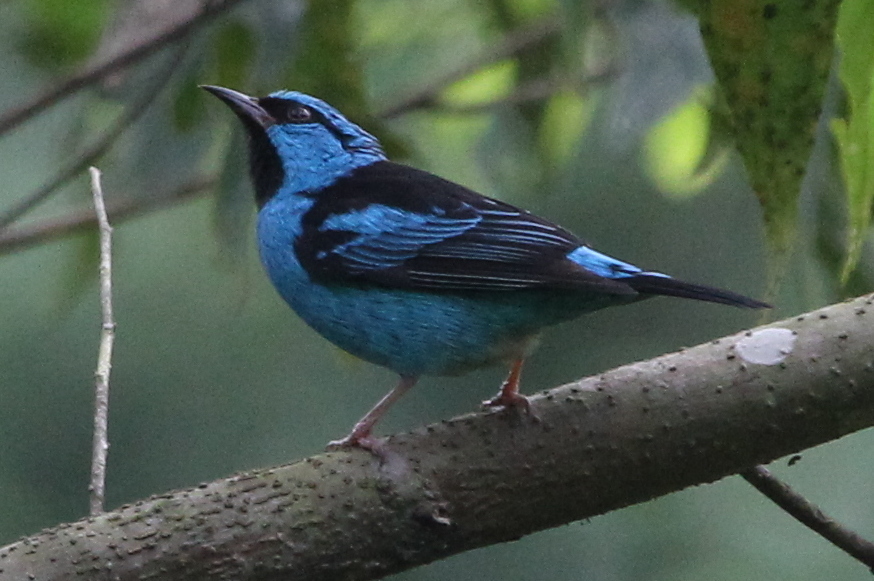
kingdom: Animalia
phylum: Chordata
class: Aves
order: Passeriformes
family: Thraupidae
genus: Dacnis
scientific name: Dacnis cayana
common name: Blue dacnis
